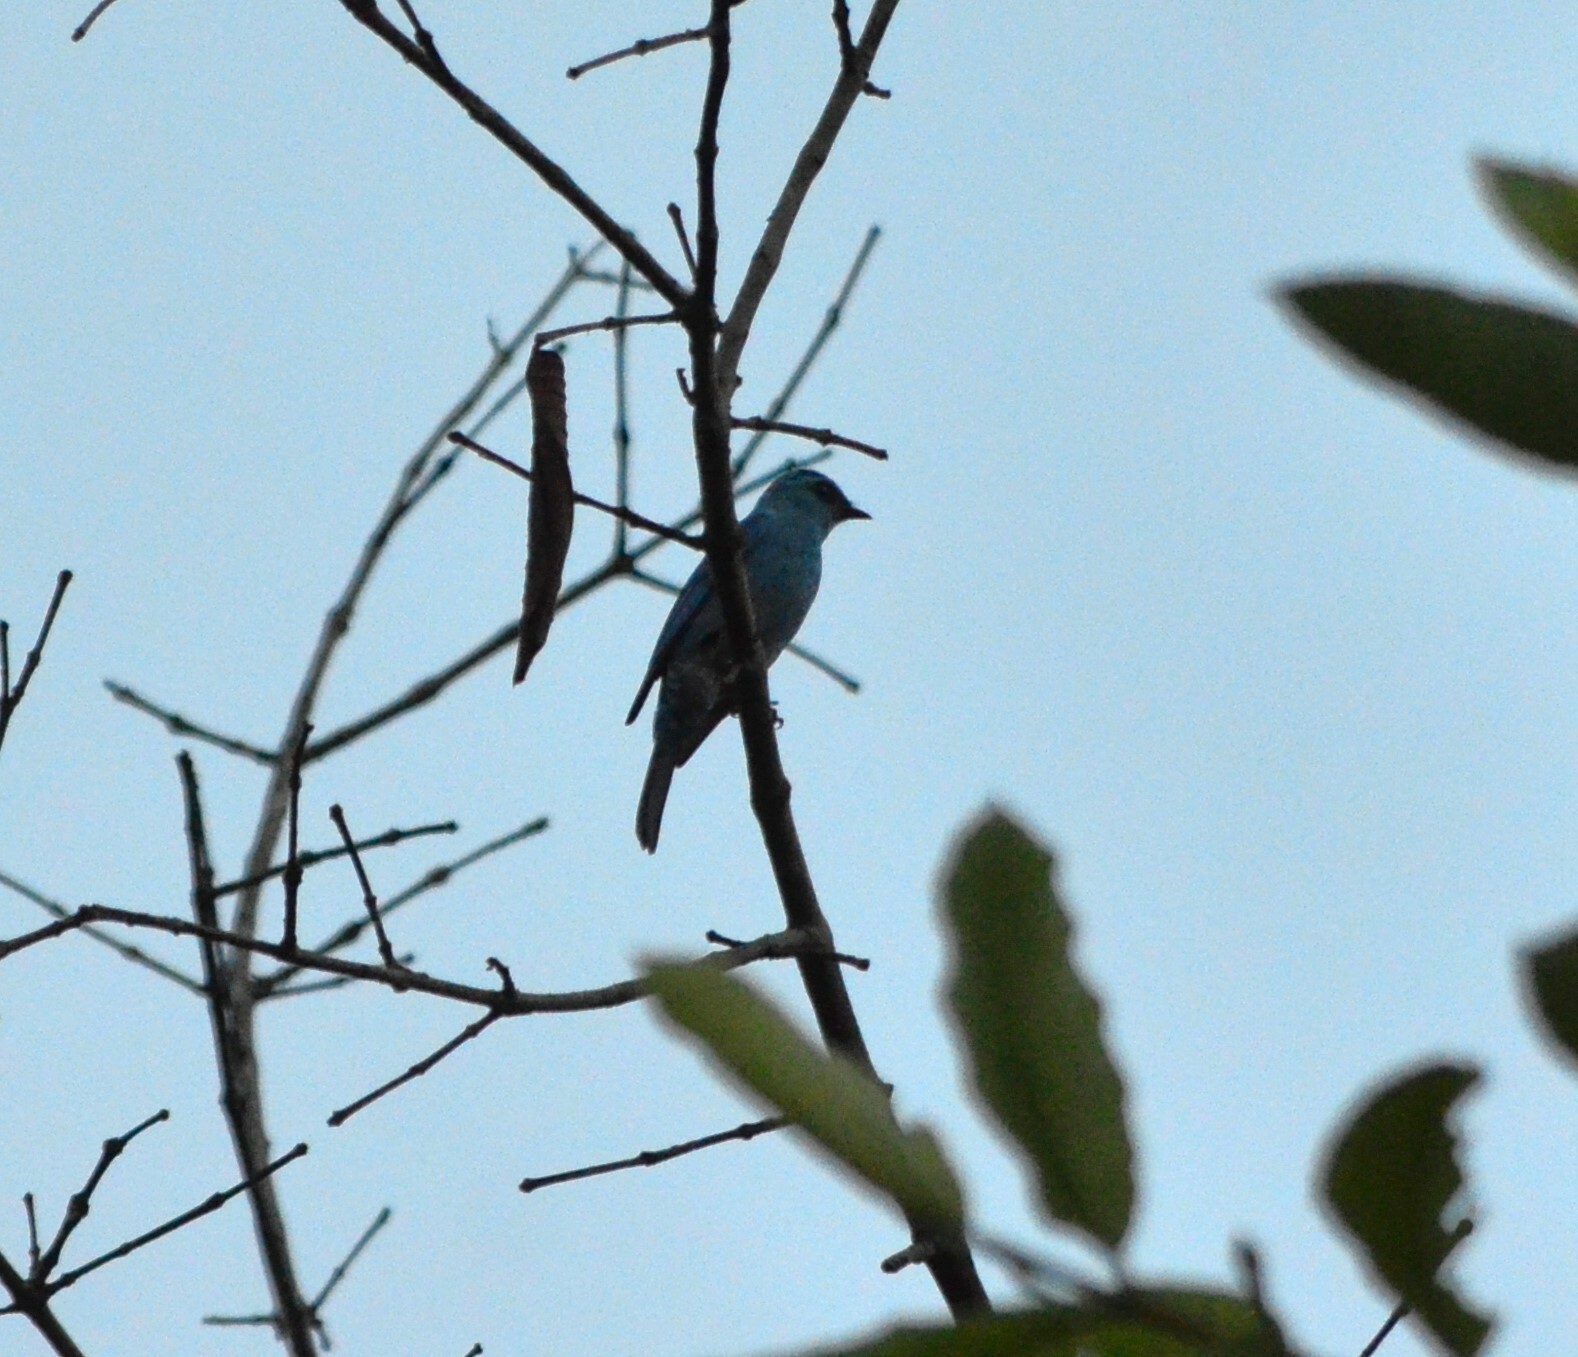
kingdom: Animalia
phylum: Chordata
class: Aves
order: Passeriformes
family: Muscicapidae
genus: Eumyias
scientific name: Eumyias thalassinus
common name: Verditer flycatcher
